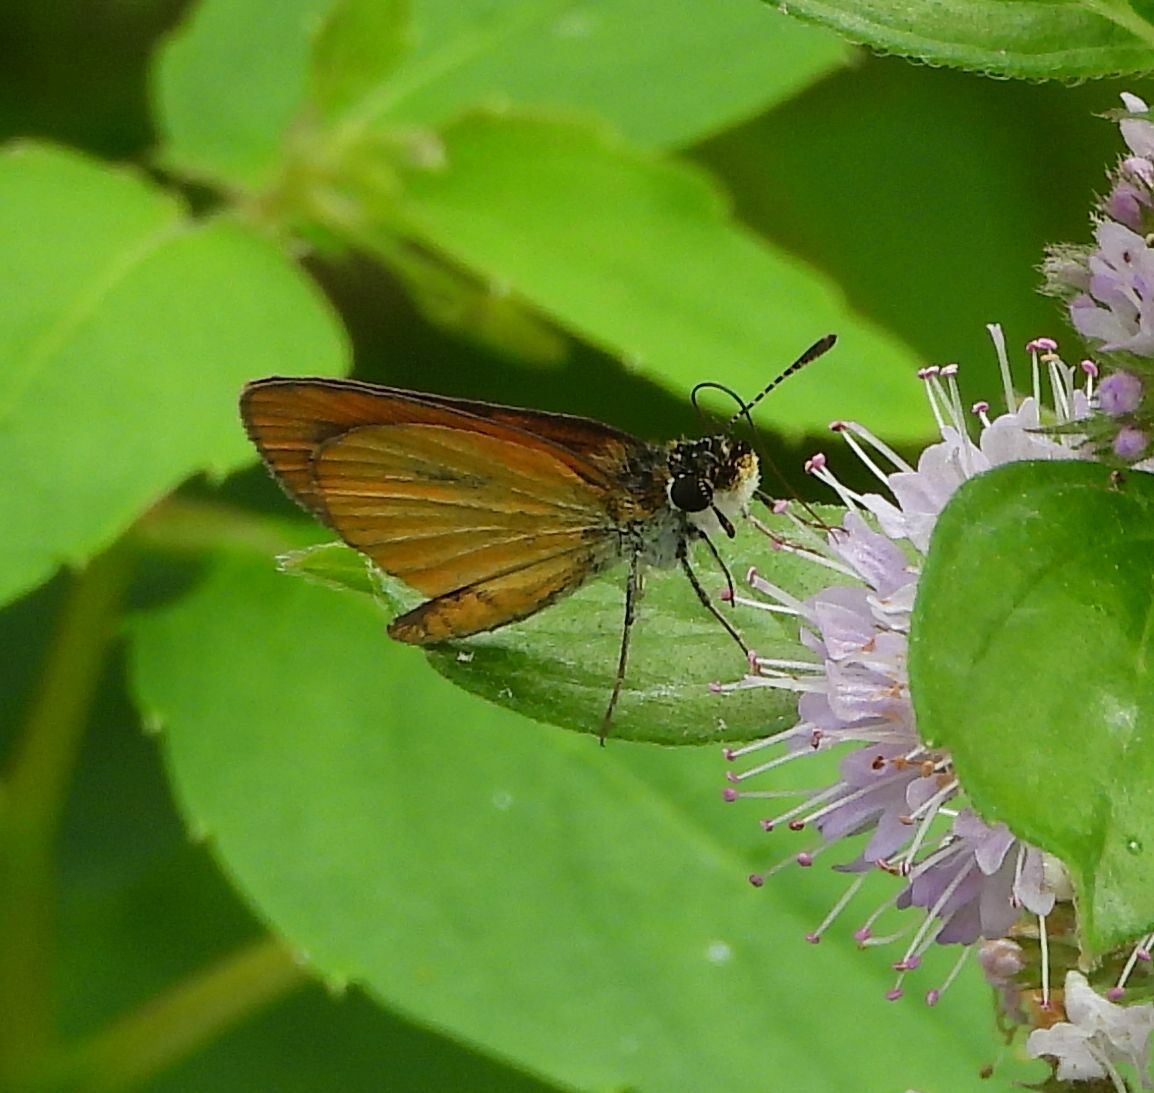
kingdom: Animalia
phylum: Arthropoda
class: Insecta
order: Lepidoptera
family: Hesperiidae
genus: Ancyloxypha
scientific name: Ancyloxypha numitor
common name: Least skipper
